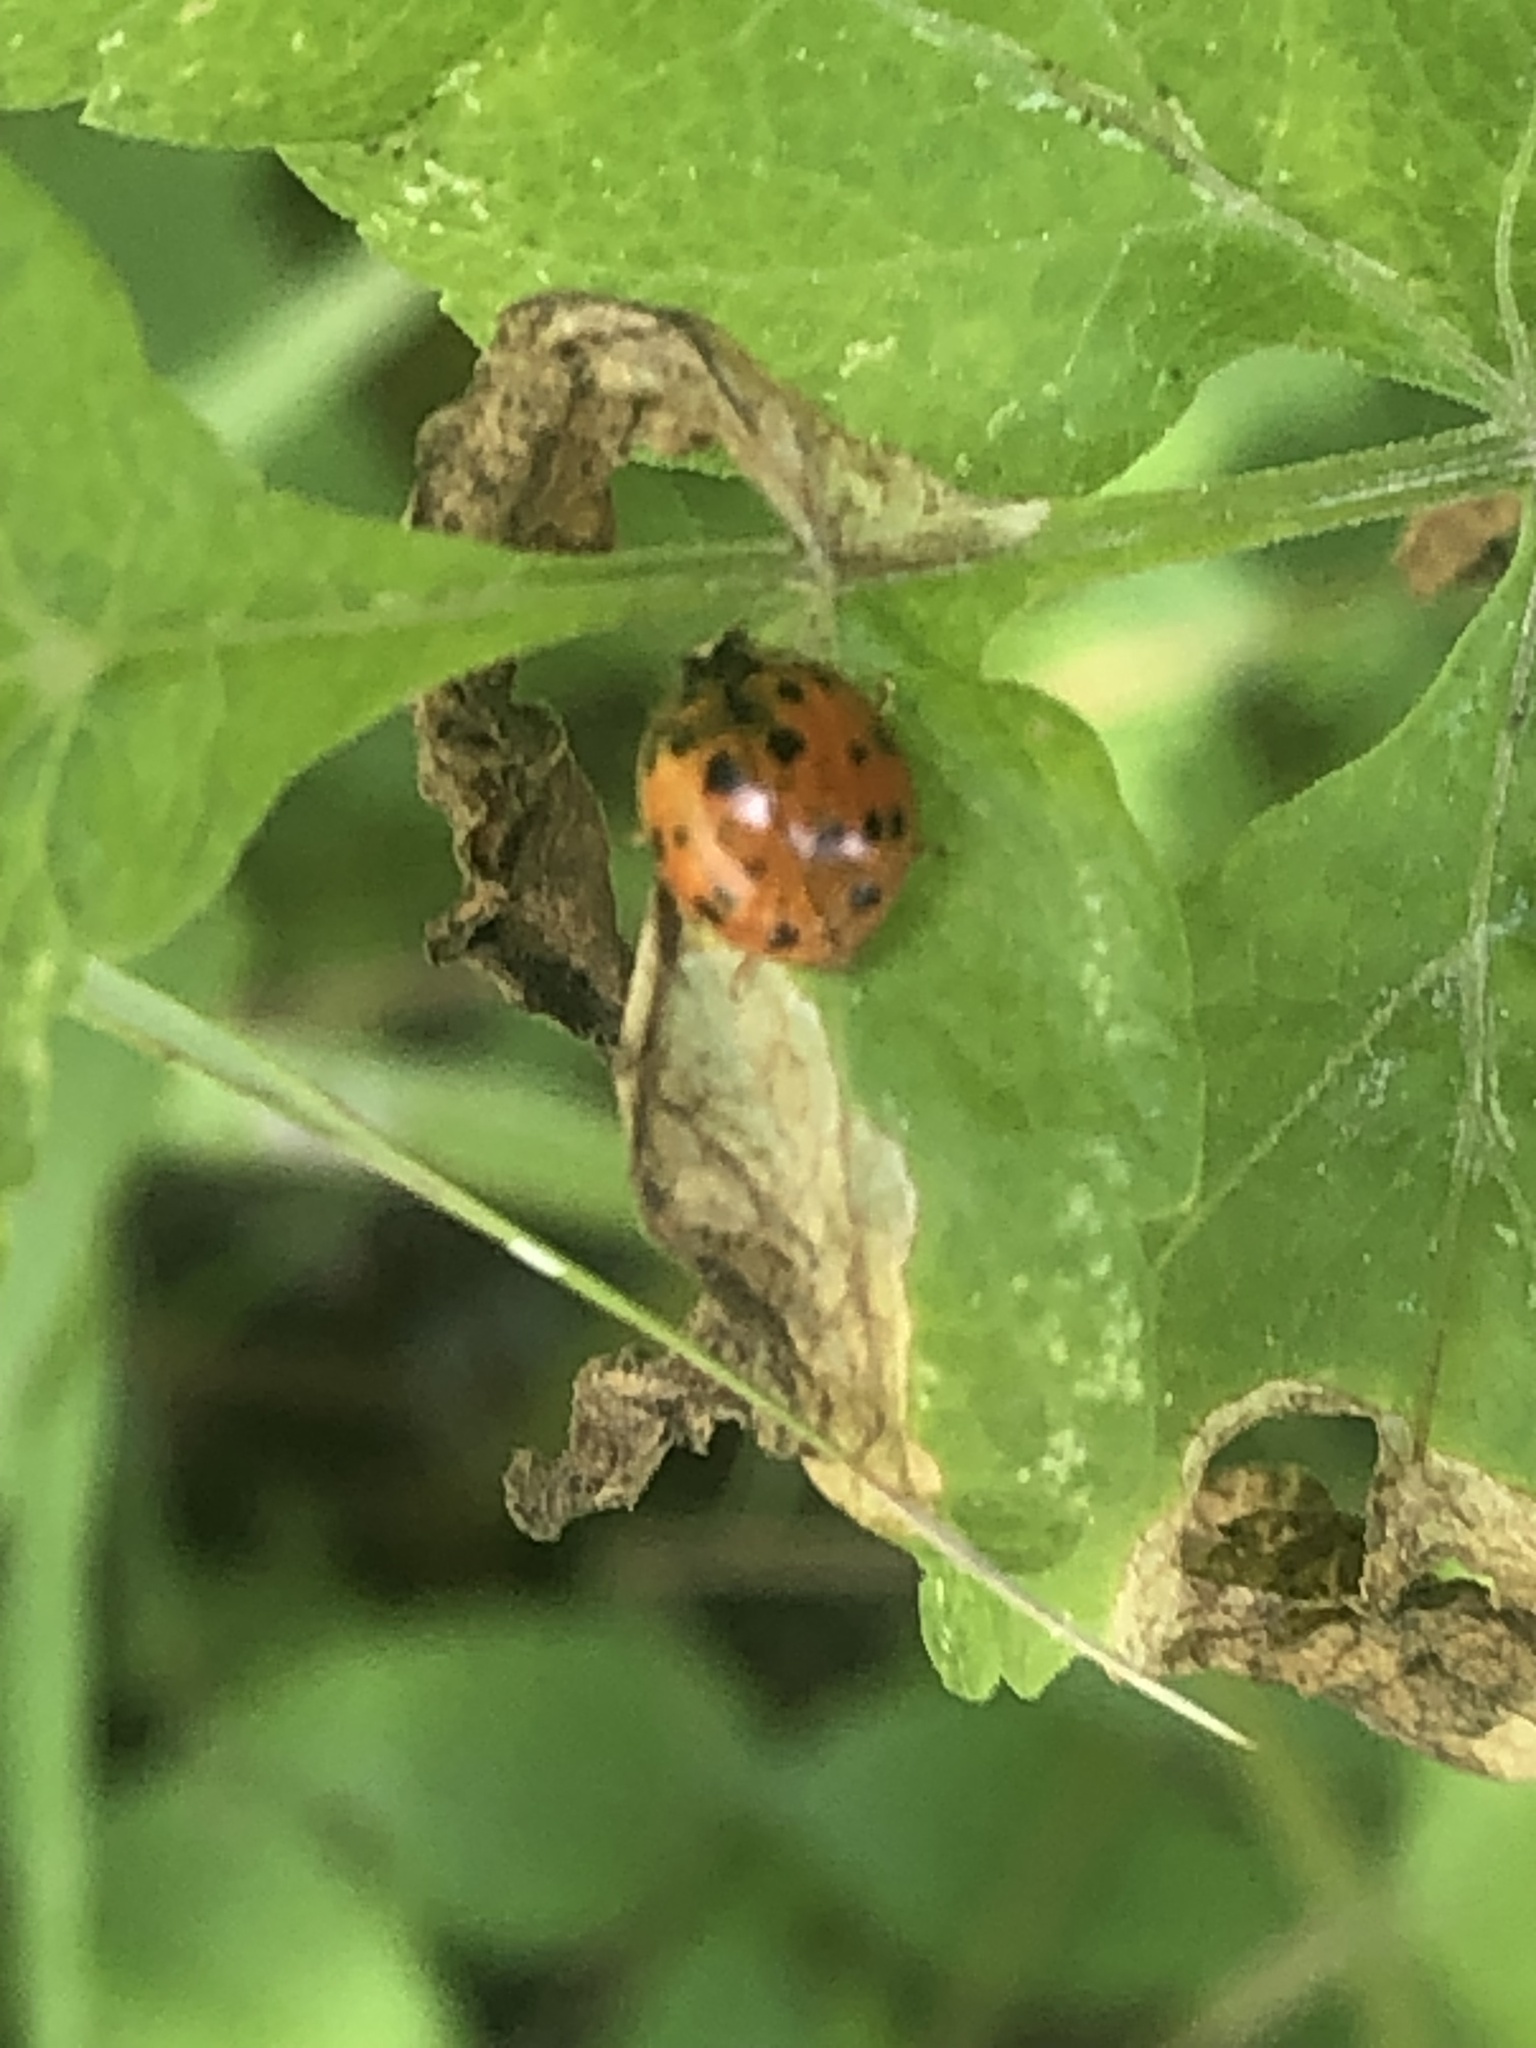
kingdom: Animalia
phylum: Arthropoda
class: Insecta
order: Coleoptera
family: Coccinellidae
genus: Harmonia
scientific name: Harmonia axyridis
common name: Harlequin ladybird
